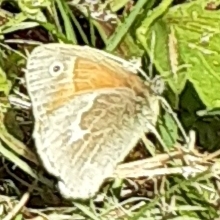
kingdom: Animalia
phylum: Arthropoda
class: Insecta
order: Lepidoptera
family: Nymphalidae
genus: Coenonympha
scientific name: Coenonympha california
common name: Common ringlet
